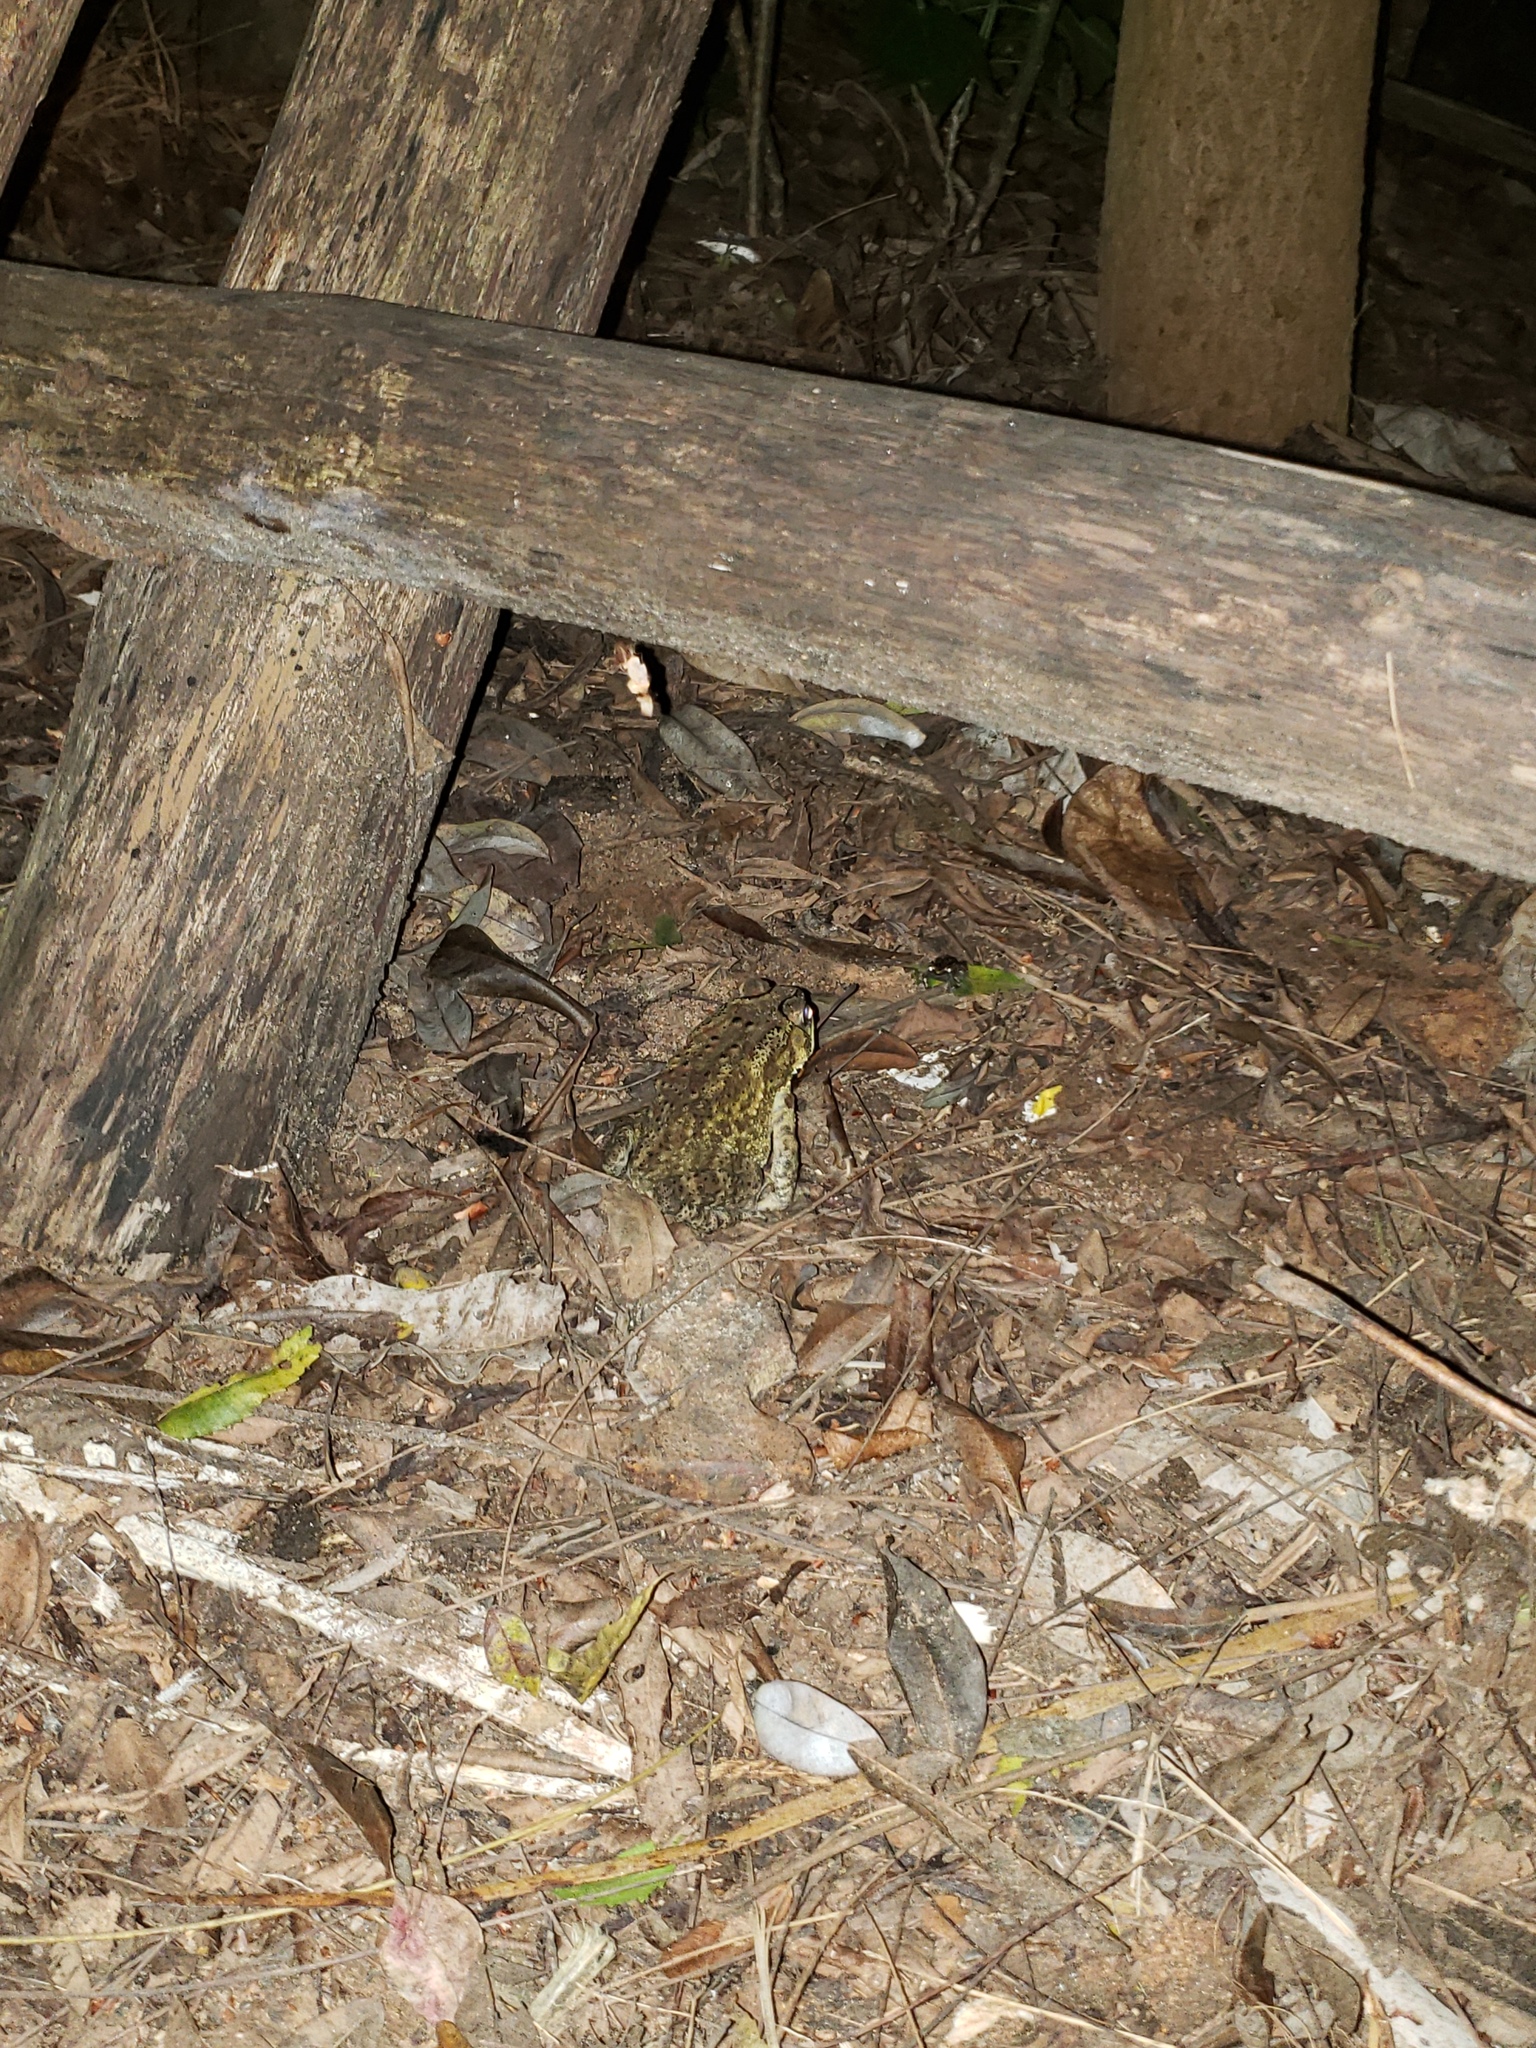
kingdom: Animalia
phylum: Chordata
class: Amphibia
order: Anura
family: Bufonidae
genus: Duttaphrynus
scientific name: Duttaphrynus melanostictus
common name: Common sunda toad
